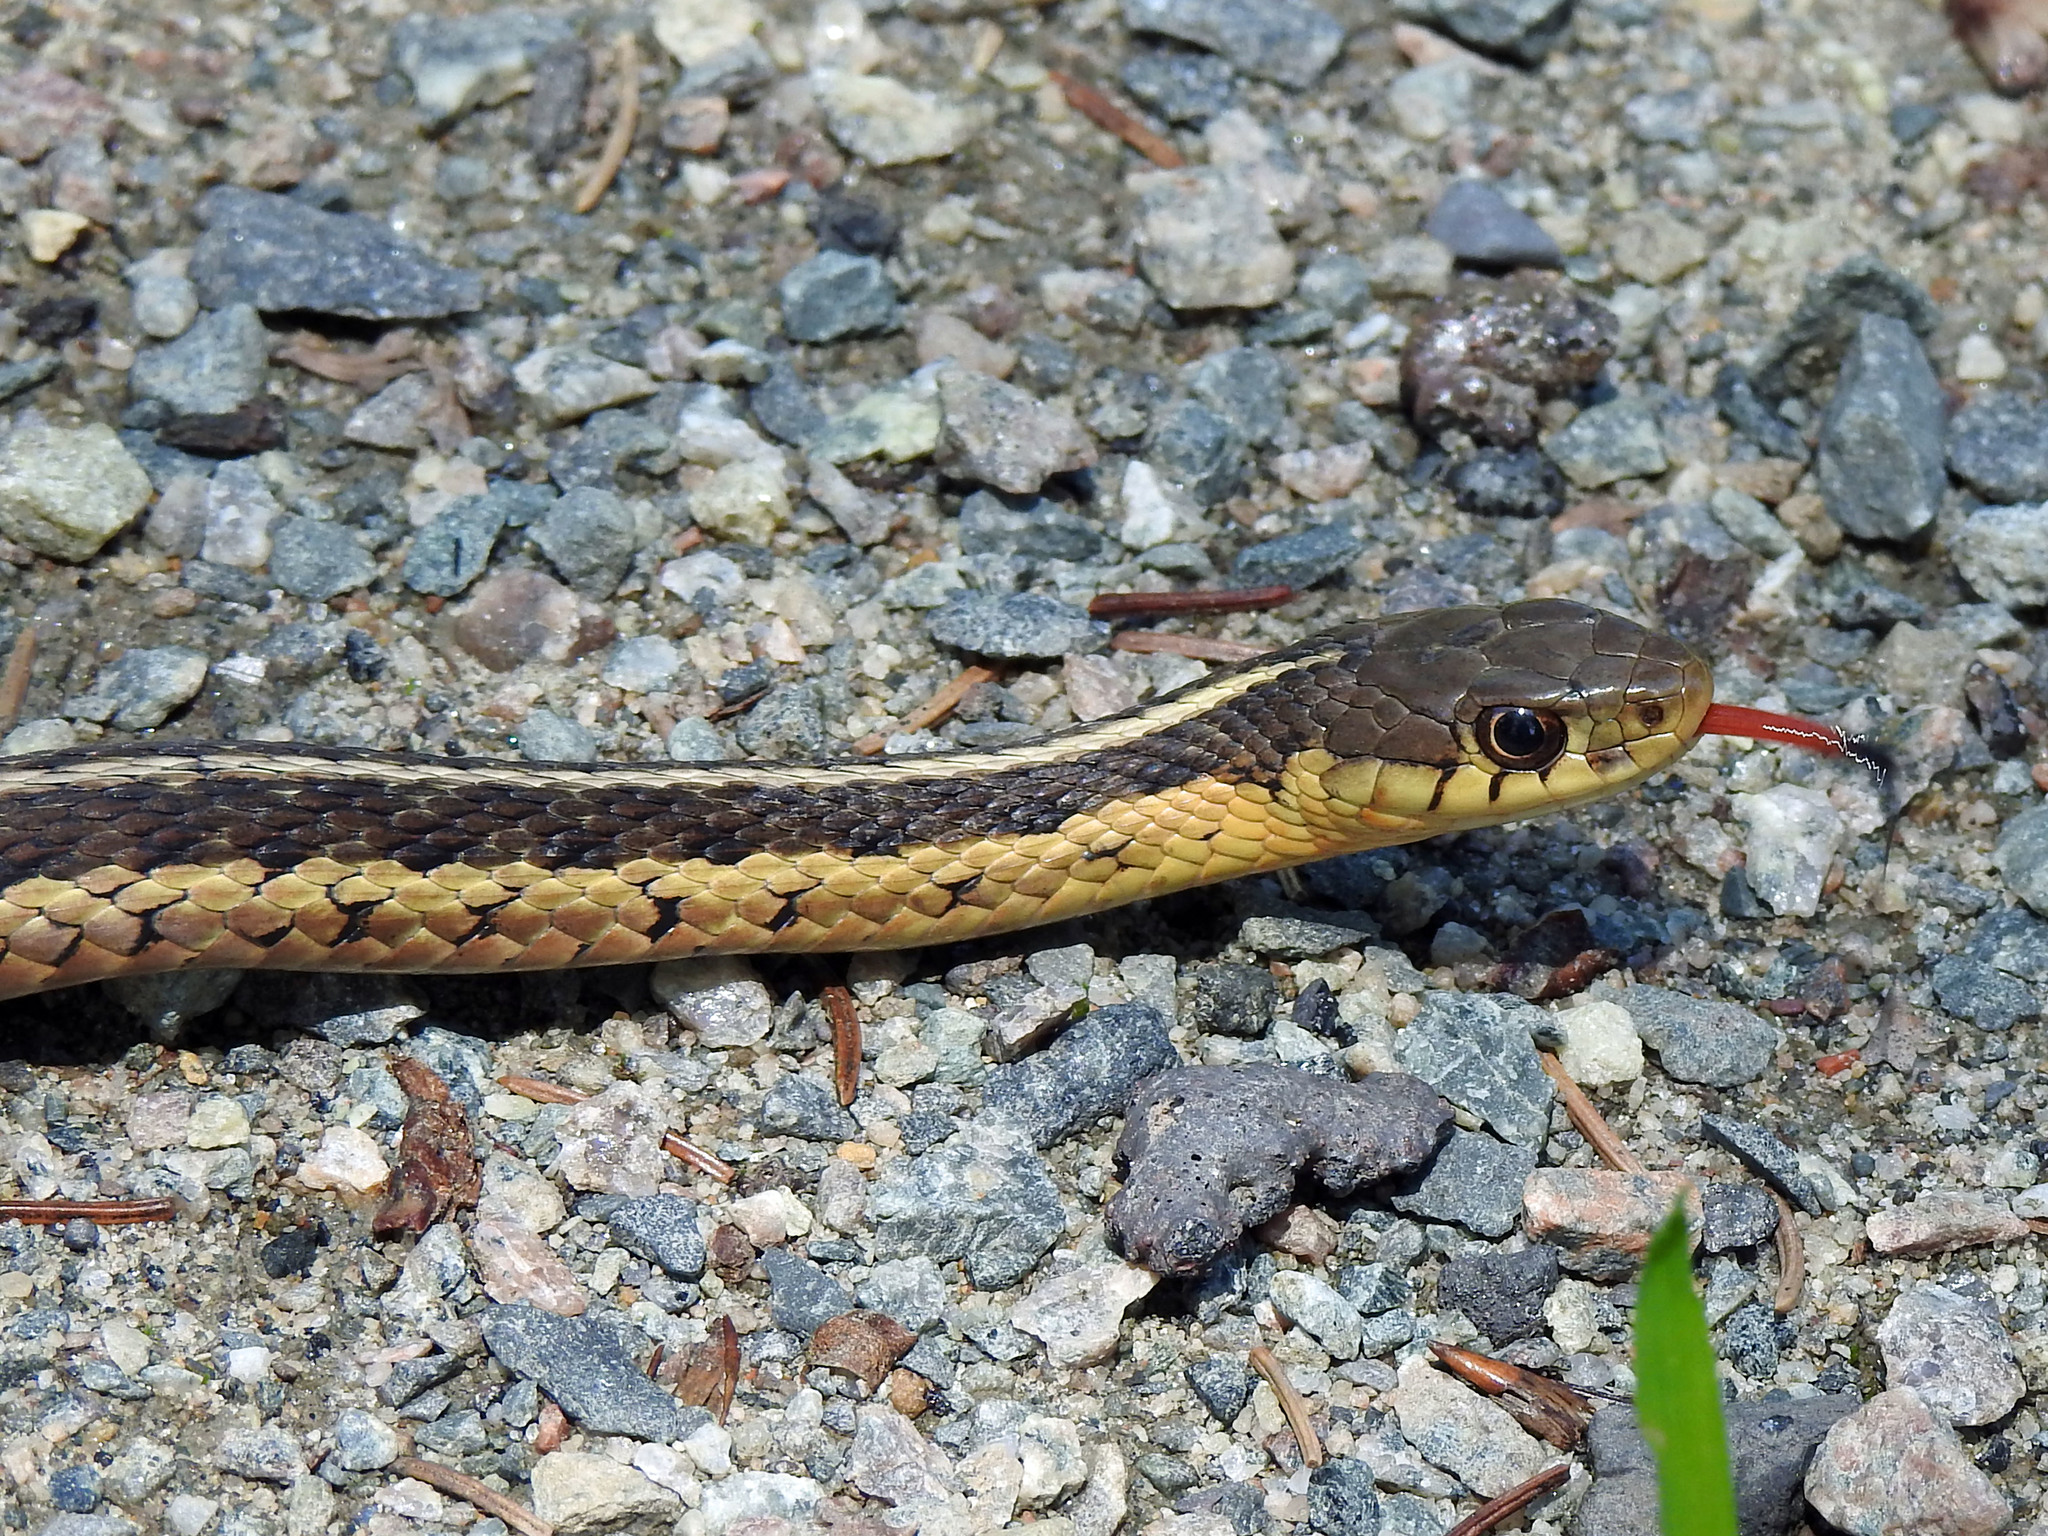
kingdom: Animalia
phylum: Chordata
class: Squamata
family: Colubridae
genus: Thamnophis
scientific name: Thamnophis sirtalis
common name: Common garter snake
